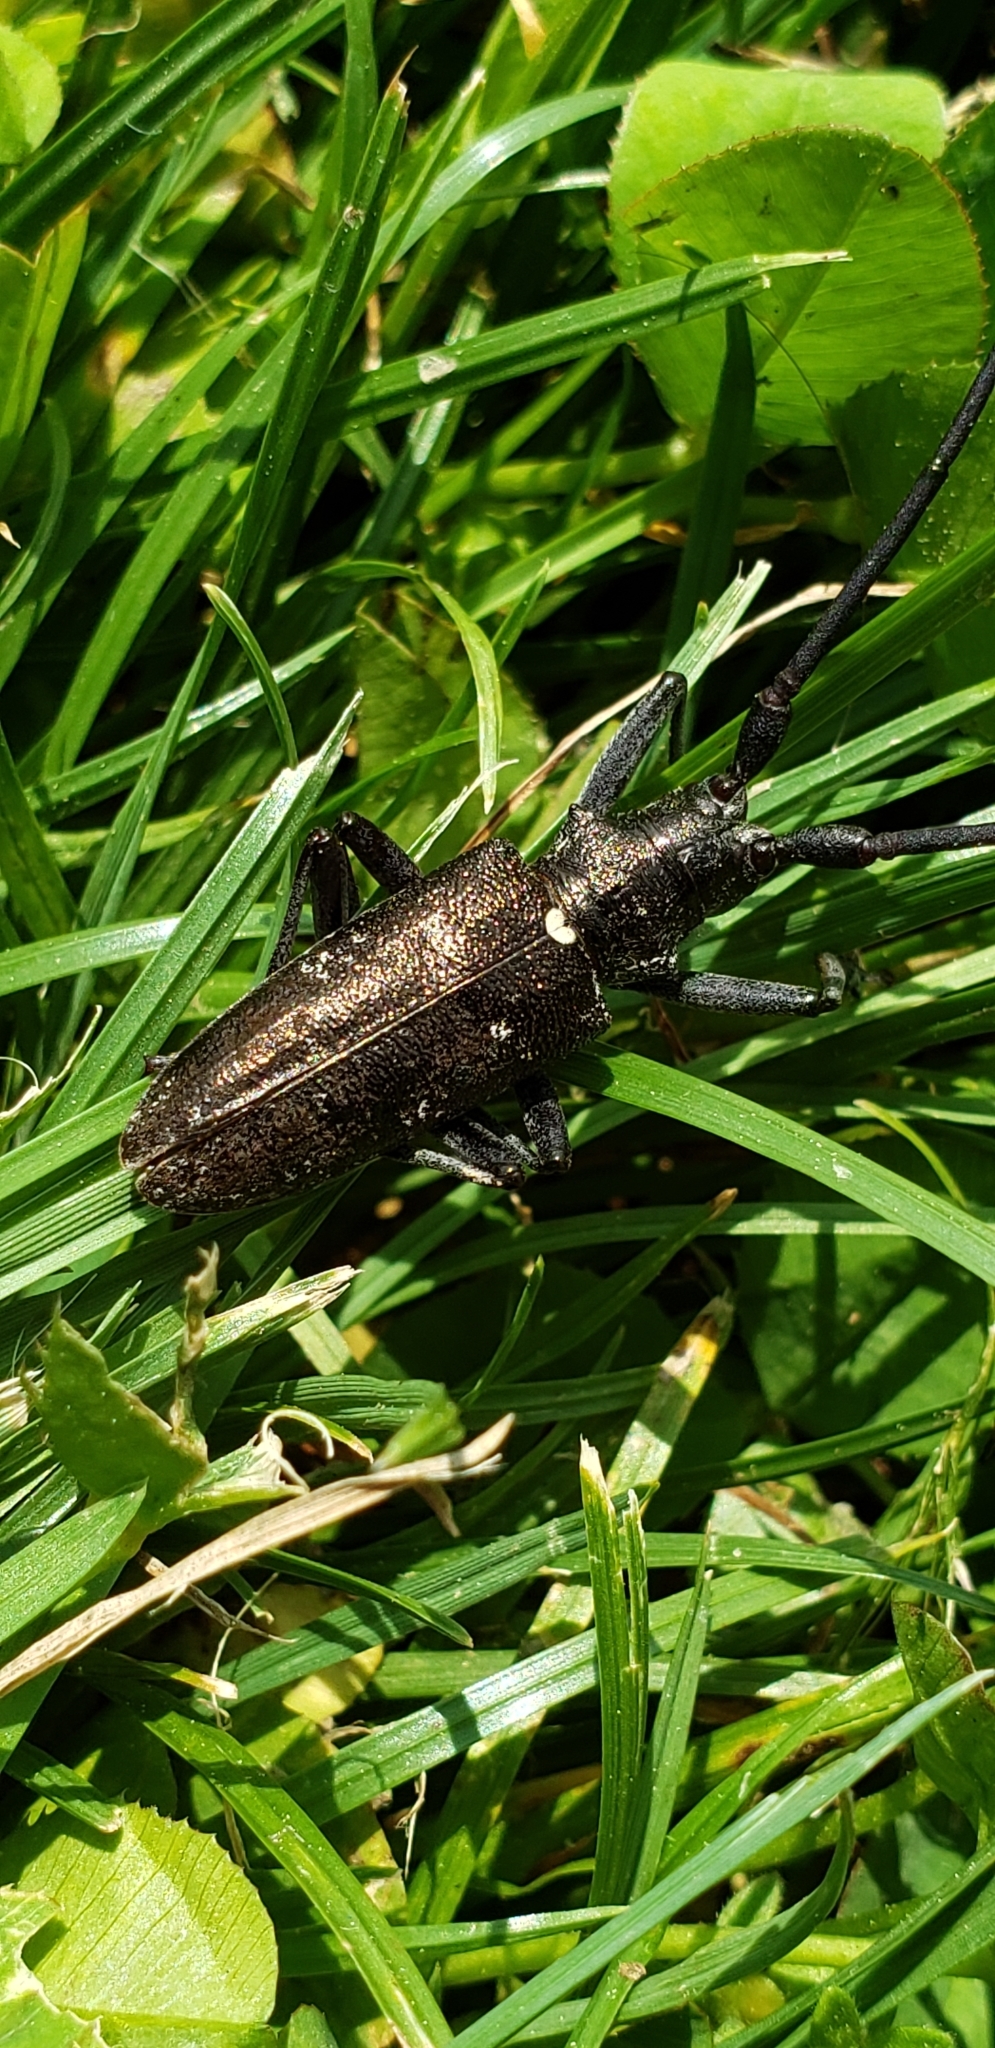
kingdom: Animalia
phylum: Arthropoda
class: Insecta
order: Coleoptera
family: Cerambycidae
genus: Monochamus
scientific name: Monochamus scutellatus
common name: White-spotted sawyer beetle
